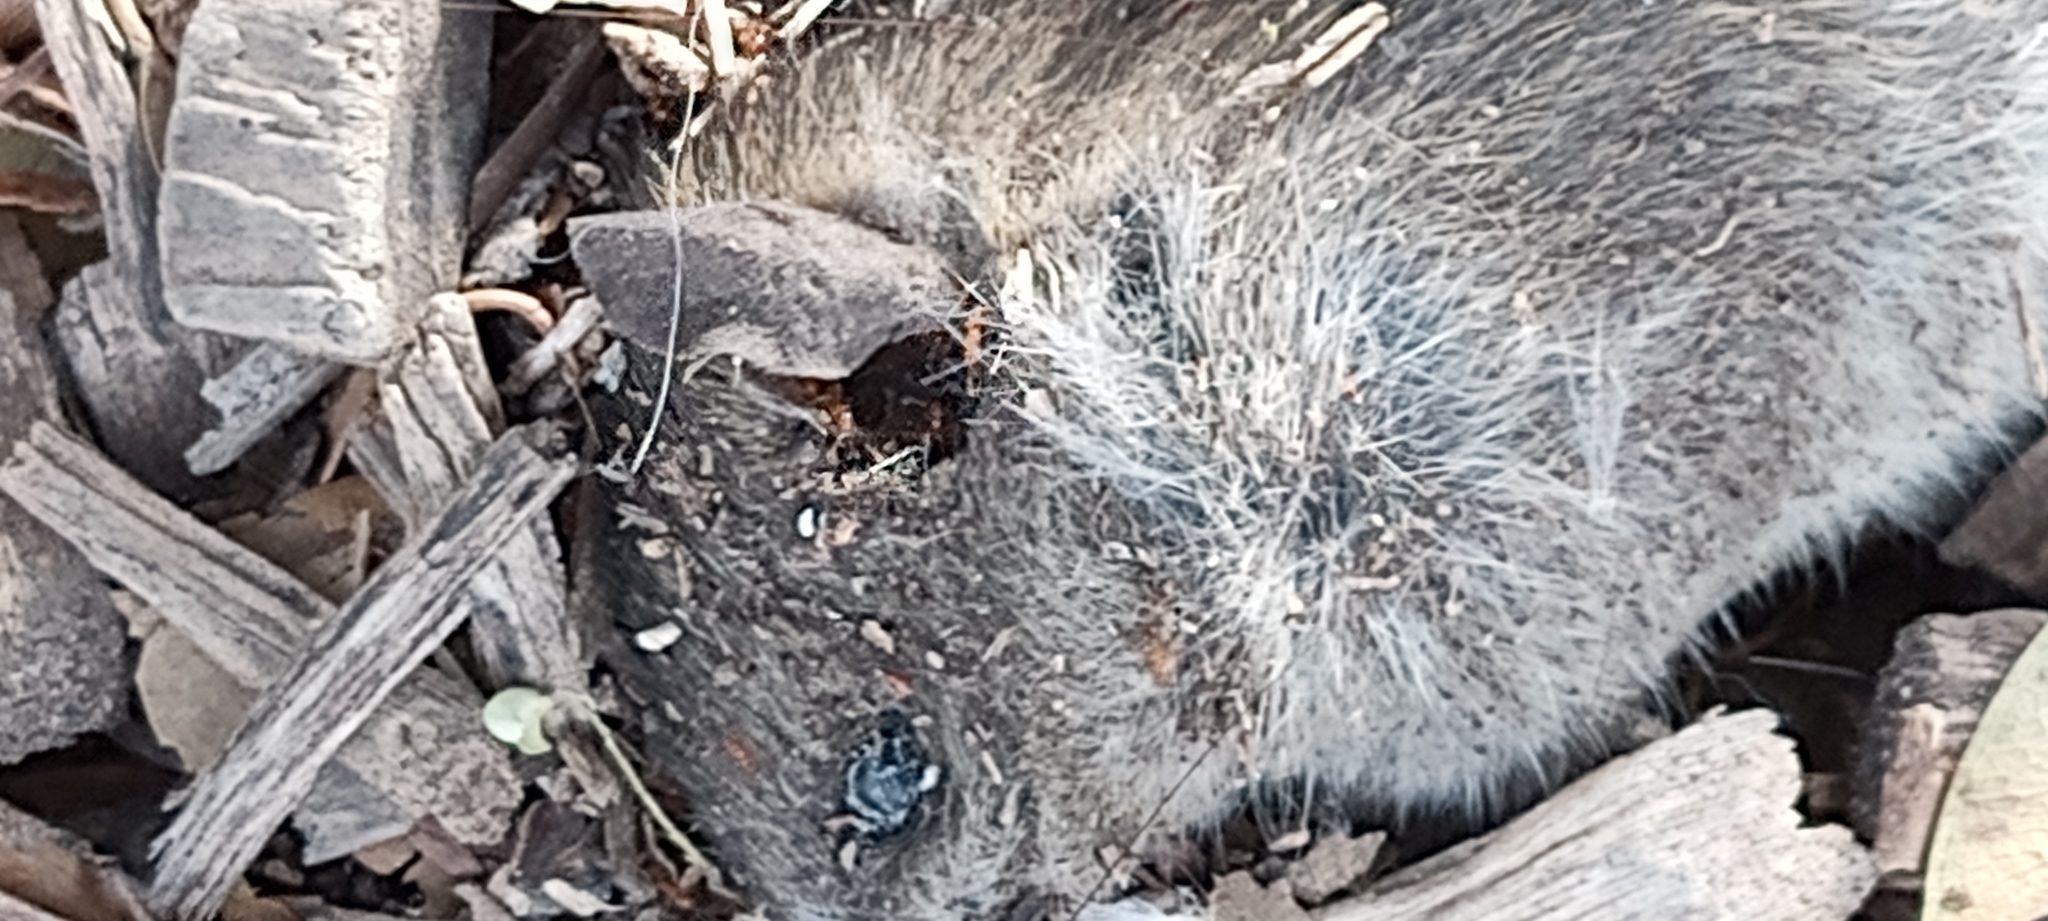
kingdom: Animalia
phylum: Chordata
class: Mammalia
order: Rodentia
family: Muridae
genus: Rattus
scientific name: Rattus rattus
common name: Black rat
